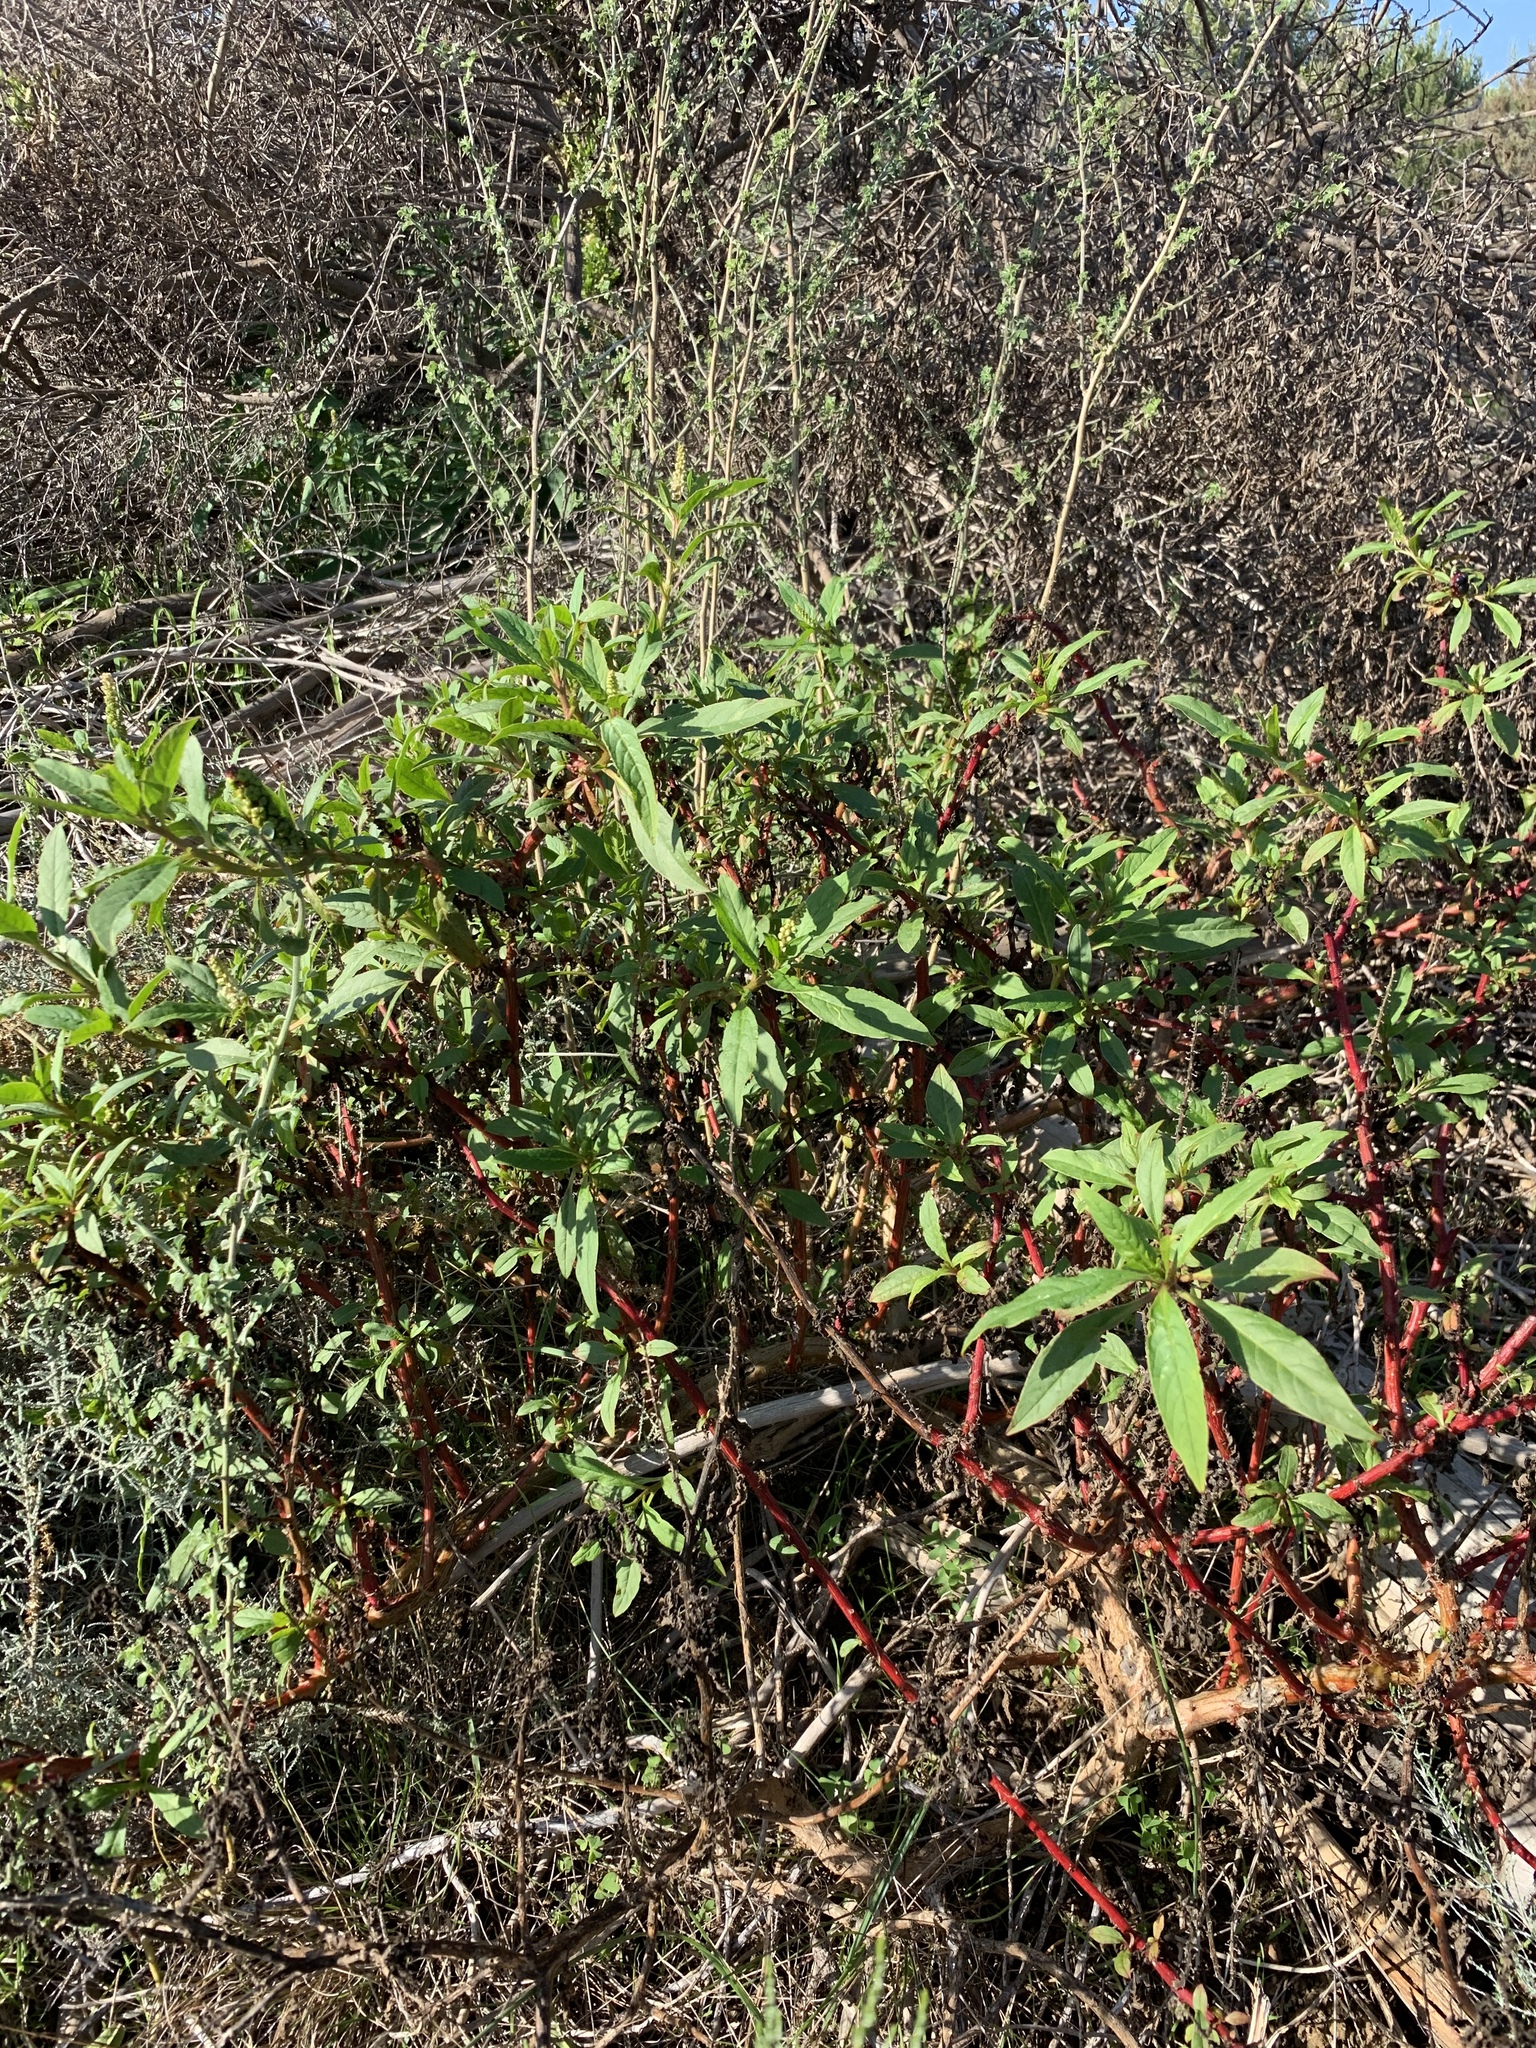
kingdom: Plantae
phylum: Tracheophyta
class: Magnoliopsida
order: Caryophyllales
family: Phytolaccaceae
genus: Phytolacca
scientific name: Phytolacca icosandra
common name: Button pokeweed
